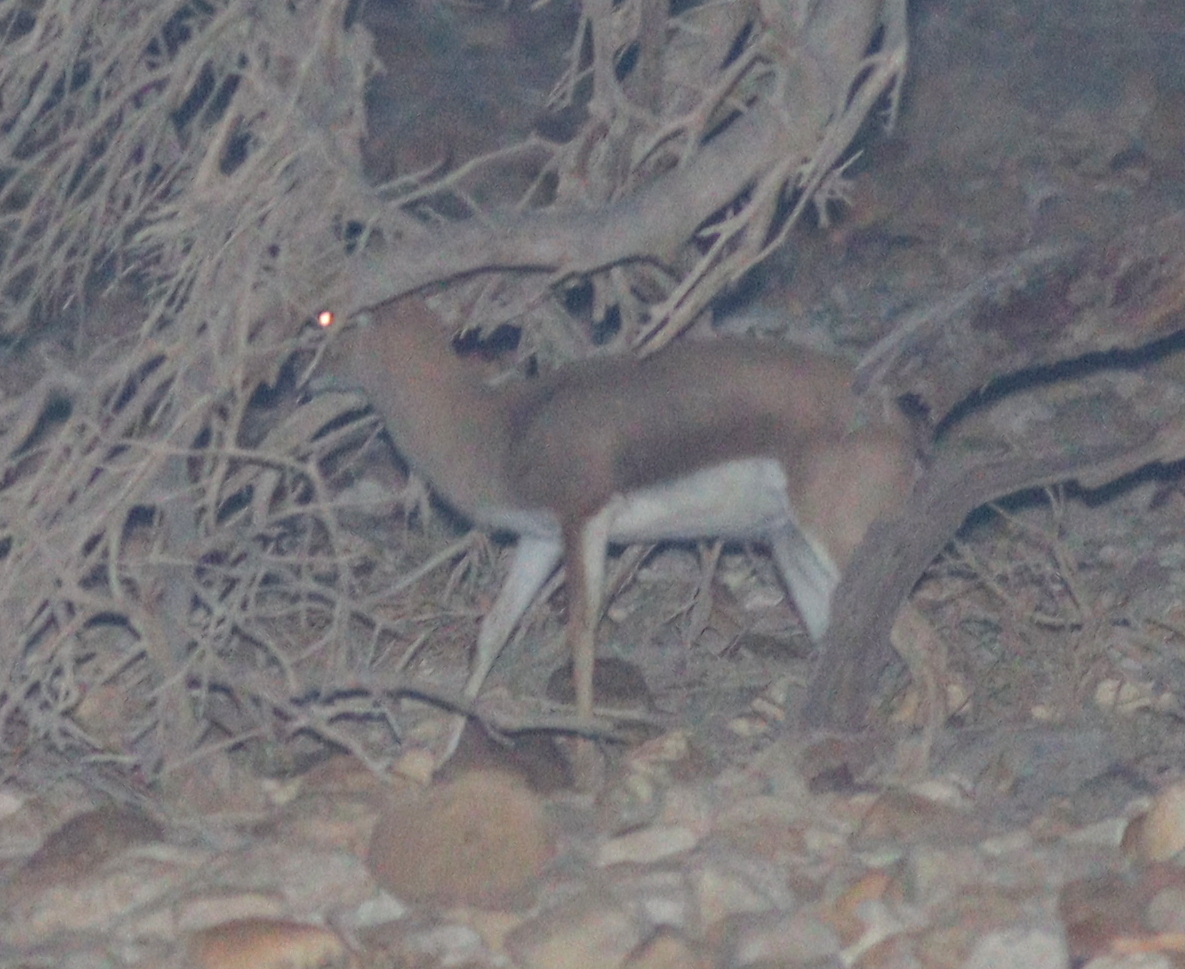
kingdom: Animalia
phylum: Chordata
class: Mammalia
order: Artiodactyla
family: Bovidae
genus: Gazella
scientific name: Gazella dorcas
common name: Dorcas gazelle
